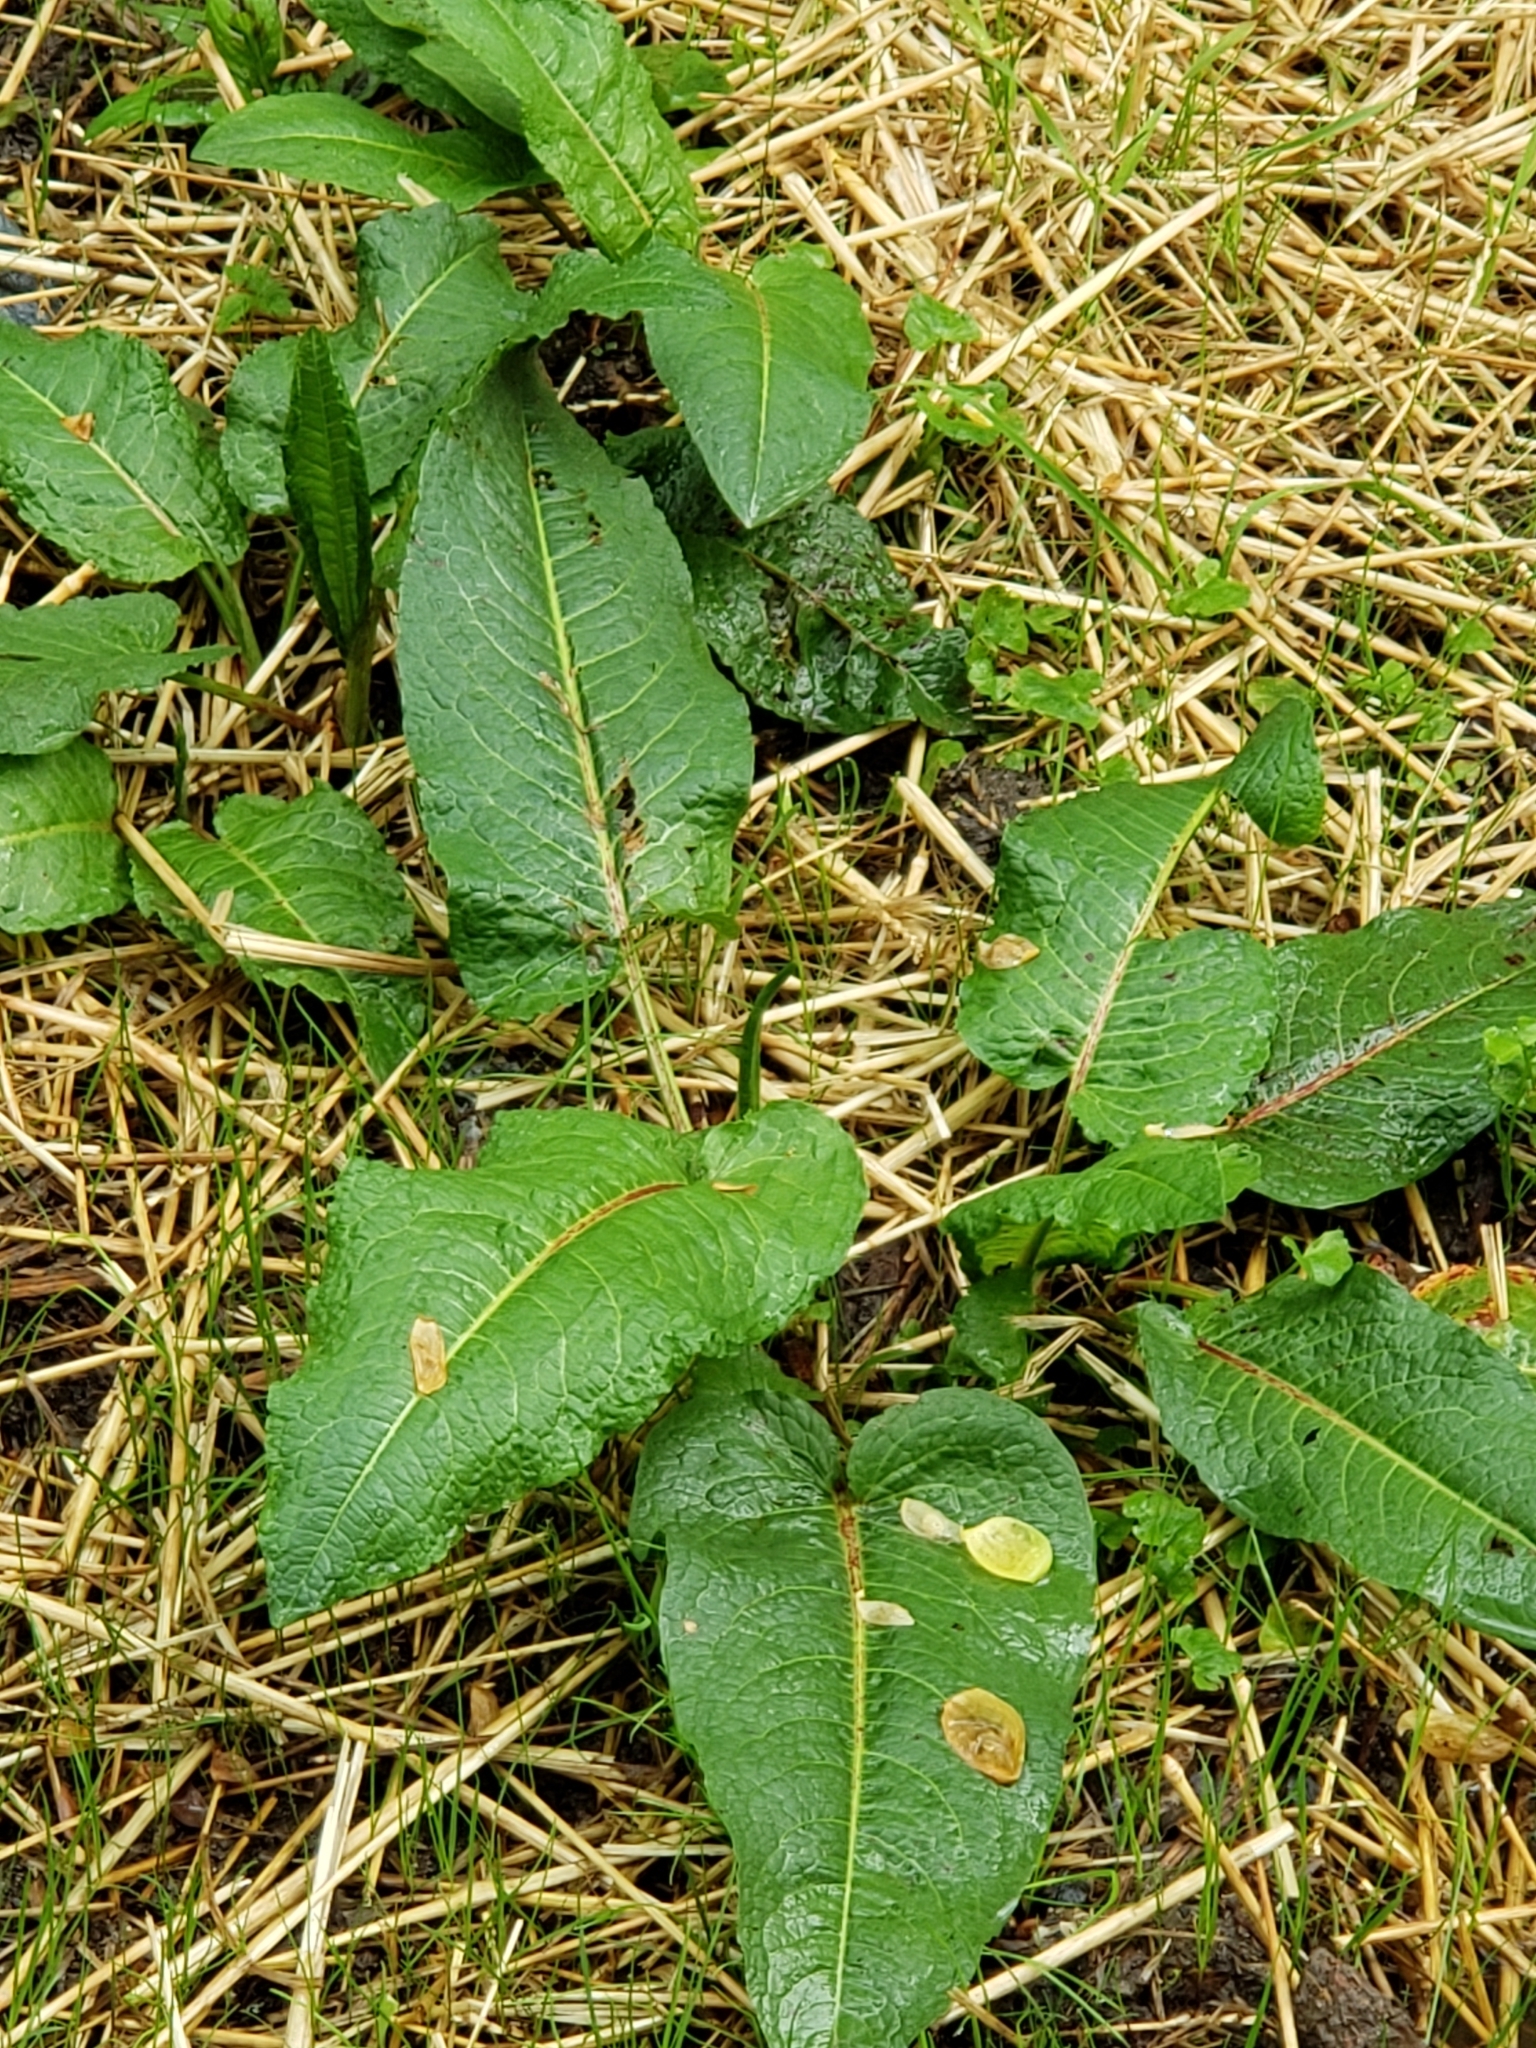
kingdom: Plantae
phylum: Tracheophyta
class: Magnoliopsida
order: Caryophyllales
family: Polygonaceae
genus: Rumex
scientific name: Rumex obtusifolius
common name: Bitter dock
